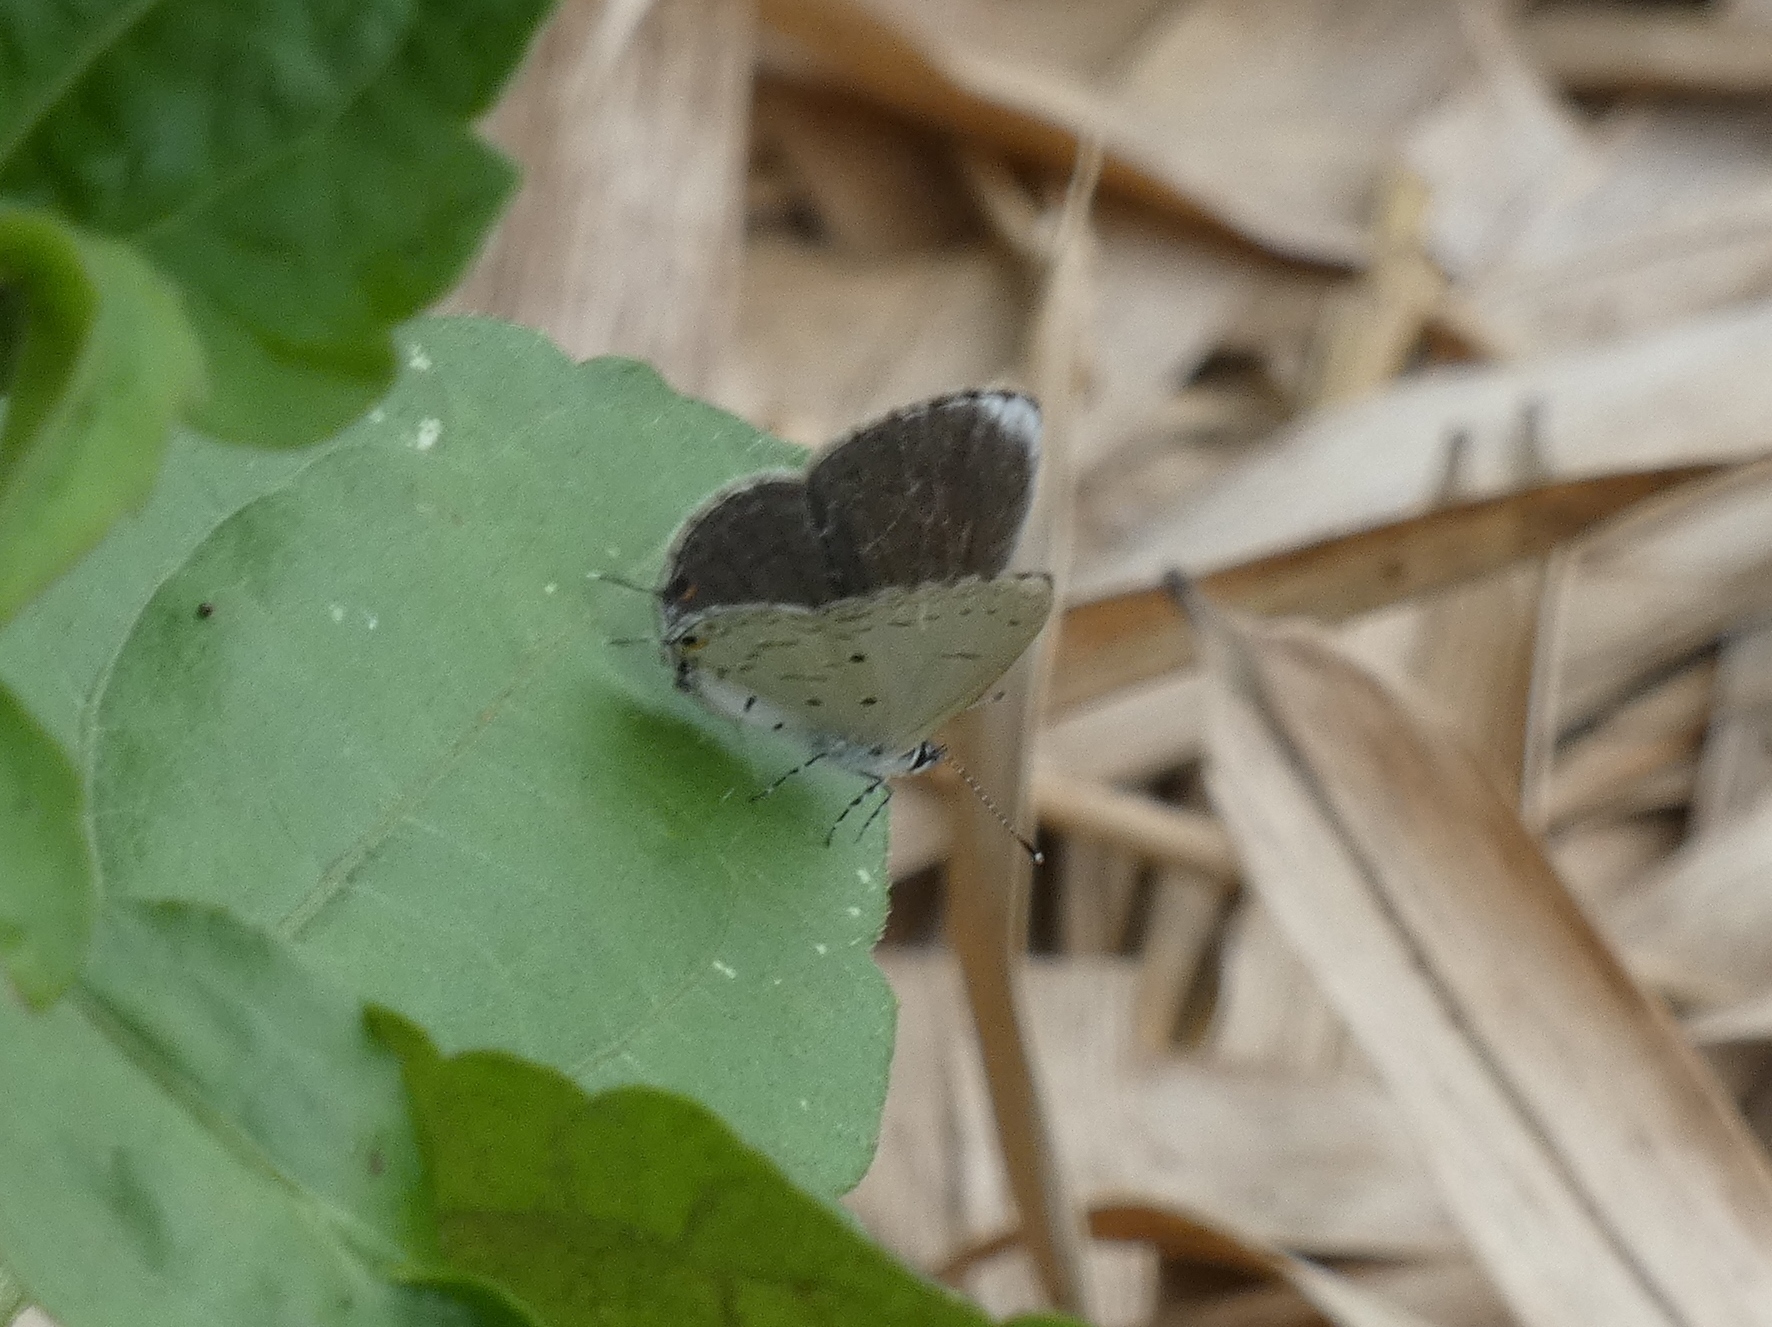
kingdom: Animalia
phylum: Arthropoda
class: Insecta
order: Lepidoptera
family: Lycaenidae
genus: Eicochrysops
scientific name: Eicochrysops hippocrates
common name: White-tipped blue
